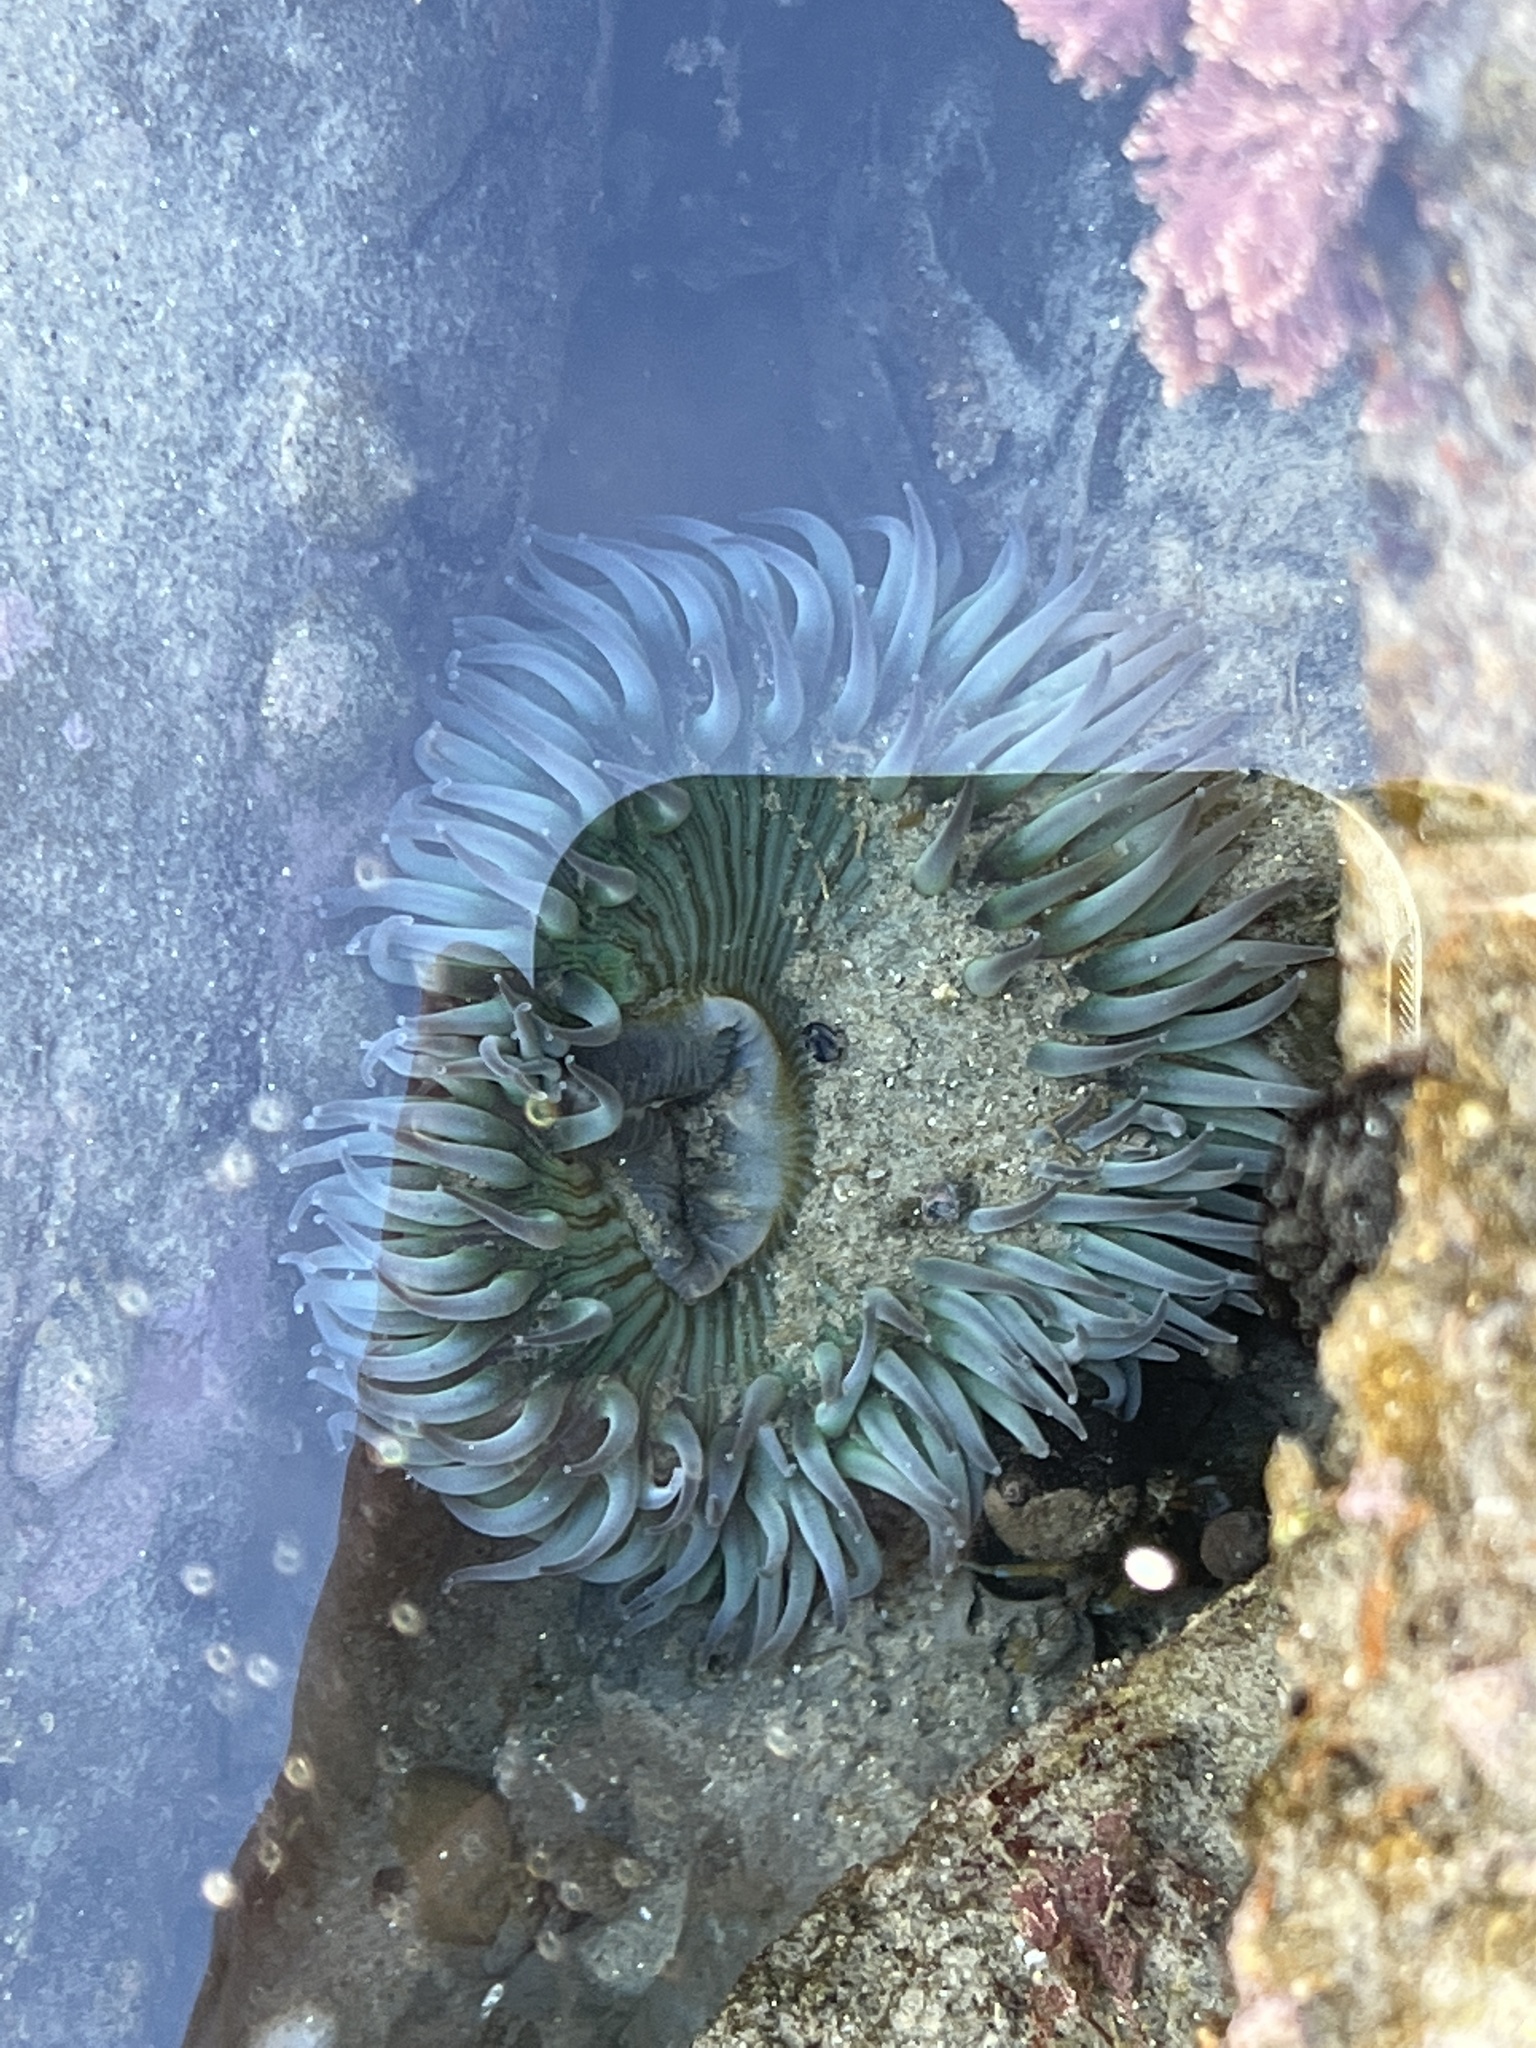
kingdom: Animalia
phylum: Cnidaria
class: Anthozoa
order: Actiniaria
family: Actiniidae
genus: Anthopleura
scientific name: Anthopleura sola
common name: Sun anemone
